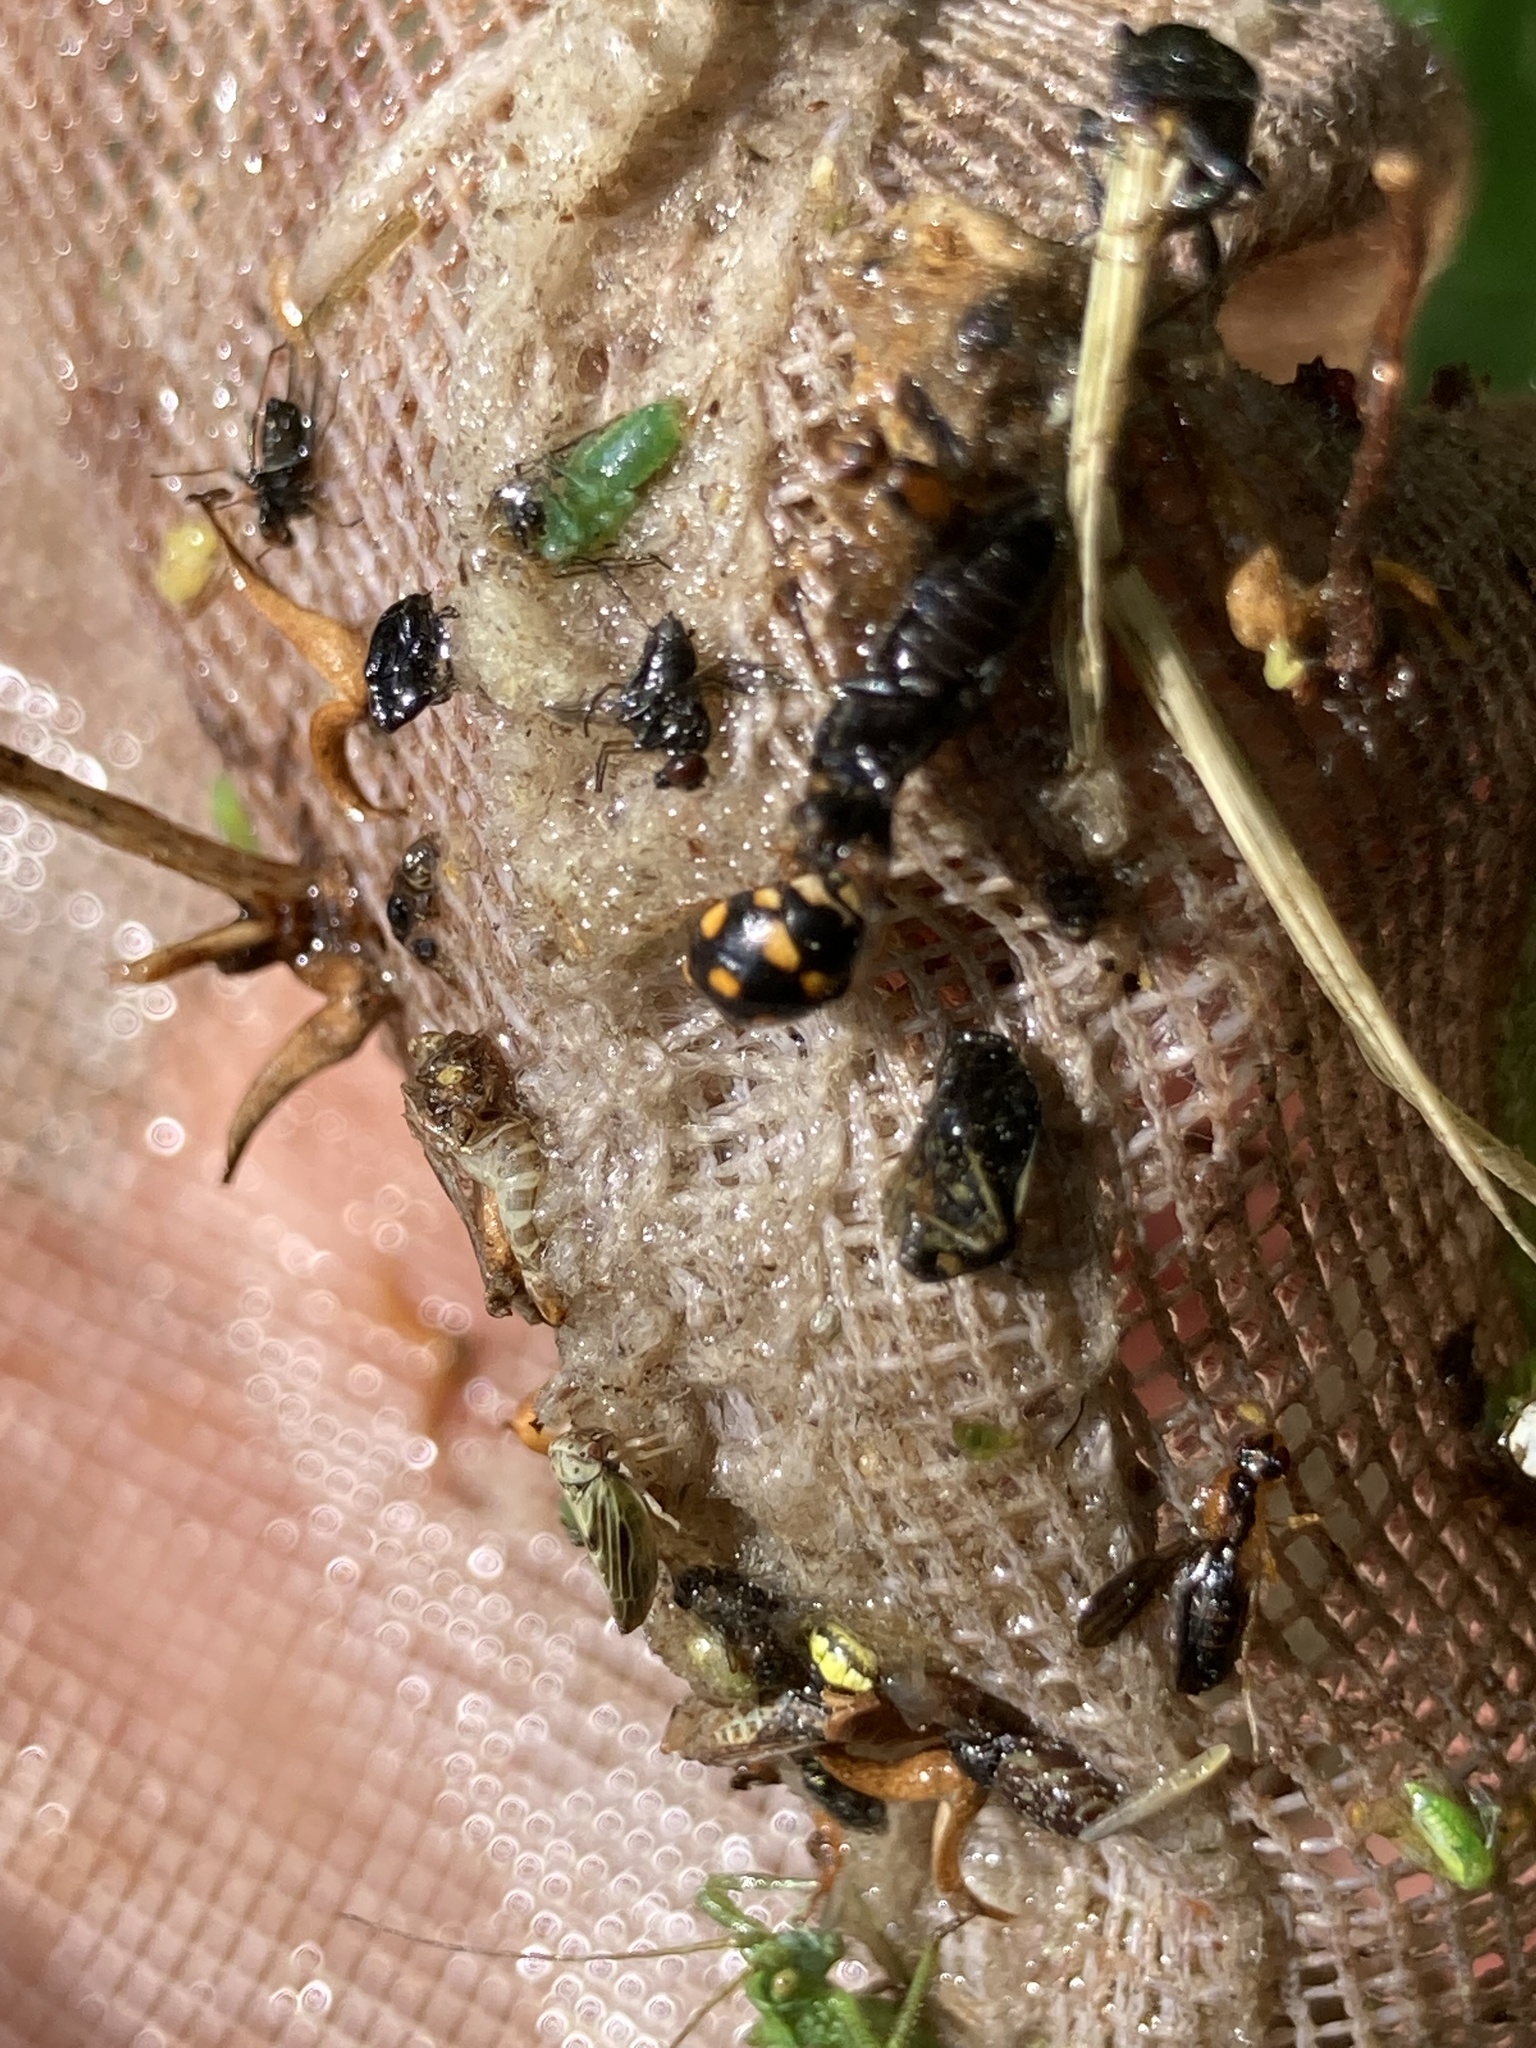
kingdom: Animalia
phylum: Arthropoda
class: Insecta
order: Coleoptera
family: Coccinellidae
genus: Brachiacantha
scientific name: Brachiacantha ursina
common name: Ursine spurleg lady beetle
